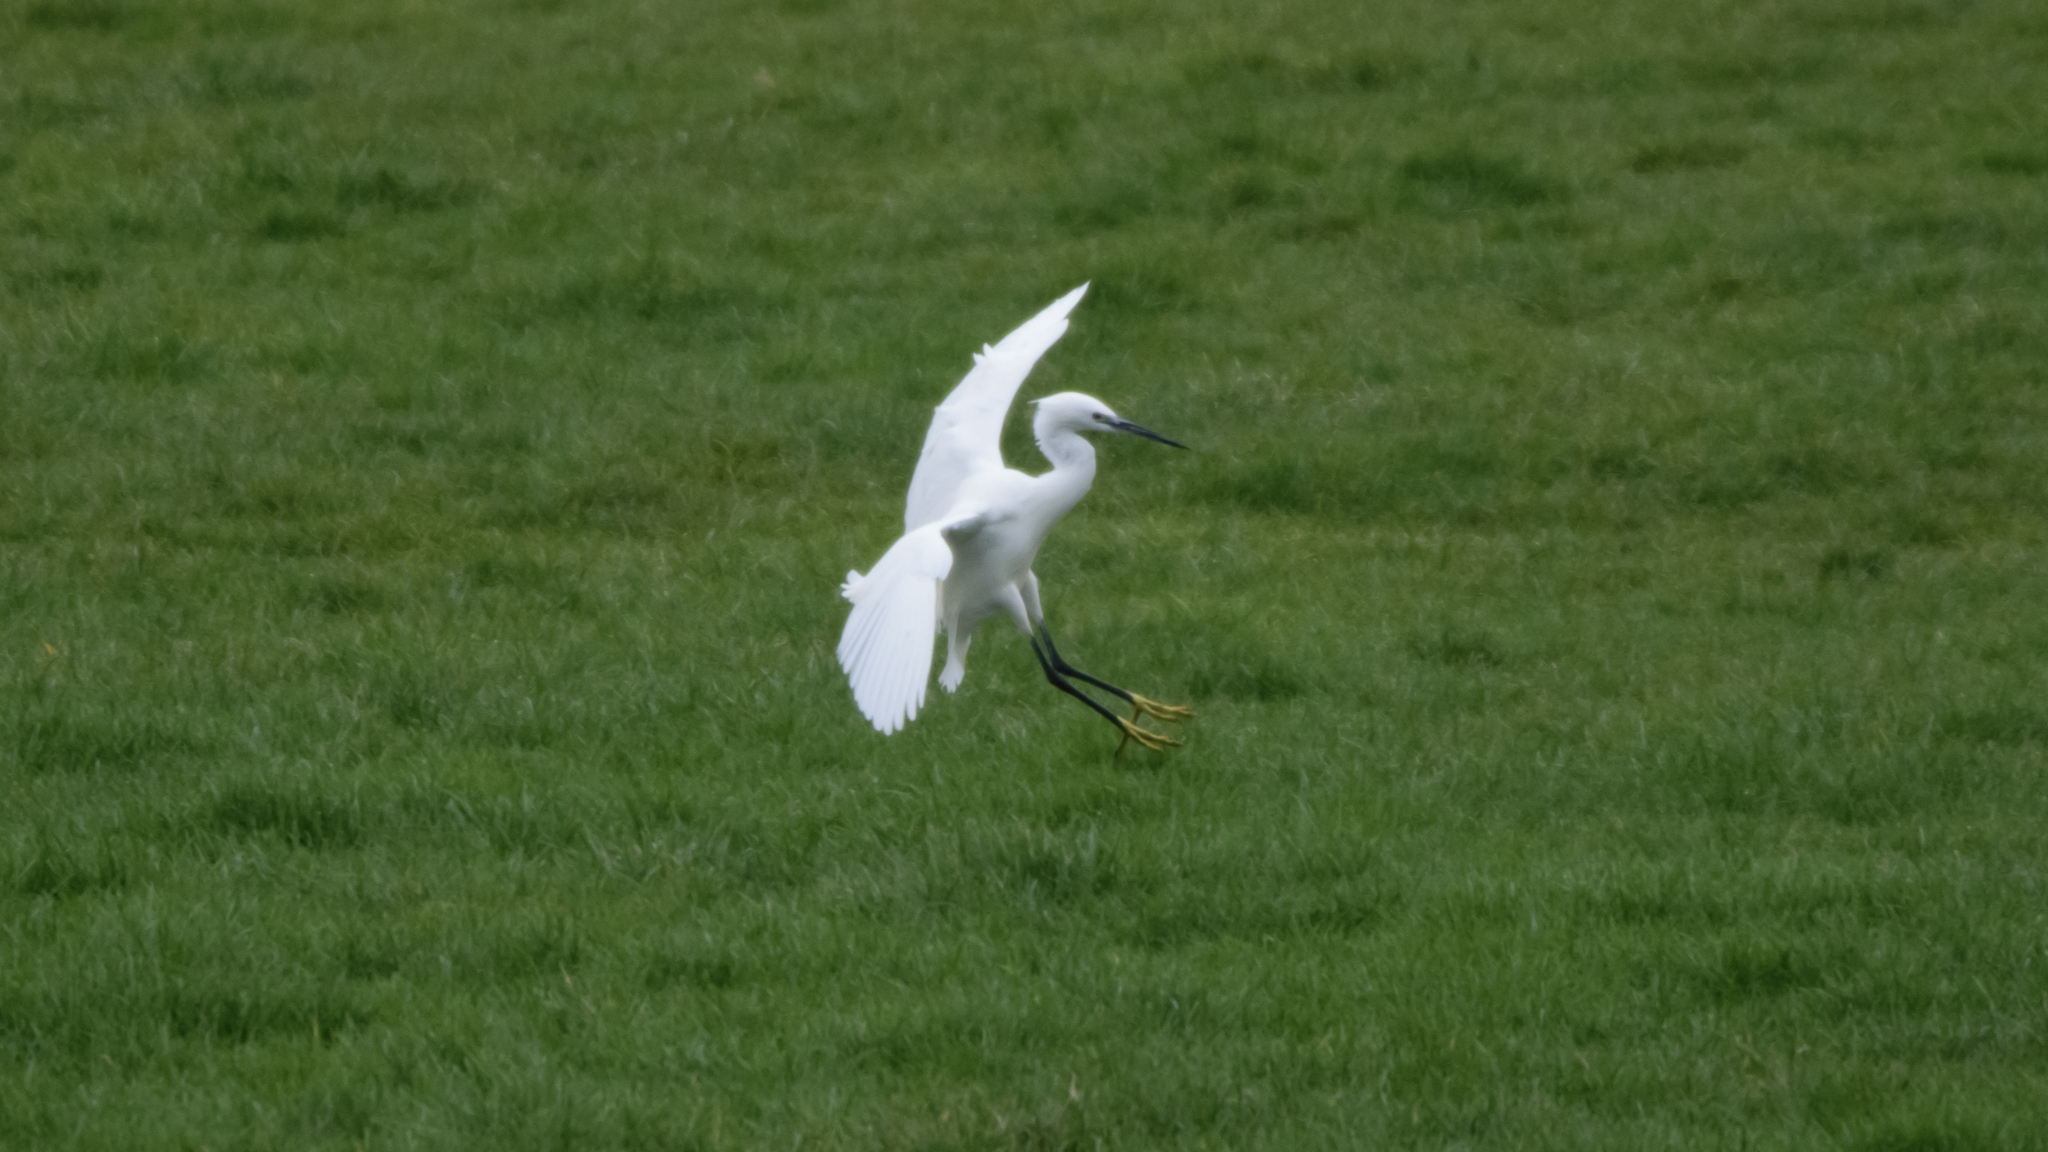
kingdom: Animalia
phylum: Chordata
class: Aves
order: Pelecaniformes
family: Ardeidae
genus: Egretta
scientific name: Egretta garzetta
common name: Little egret
